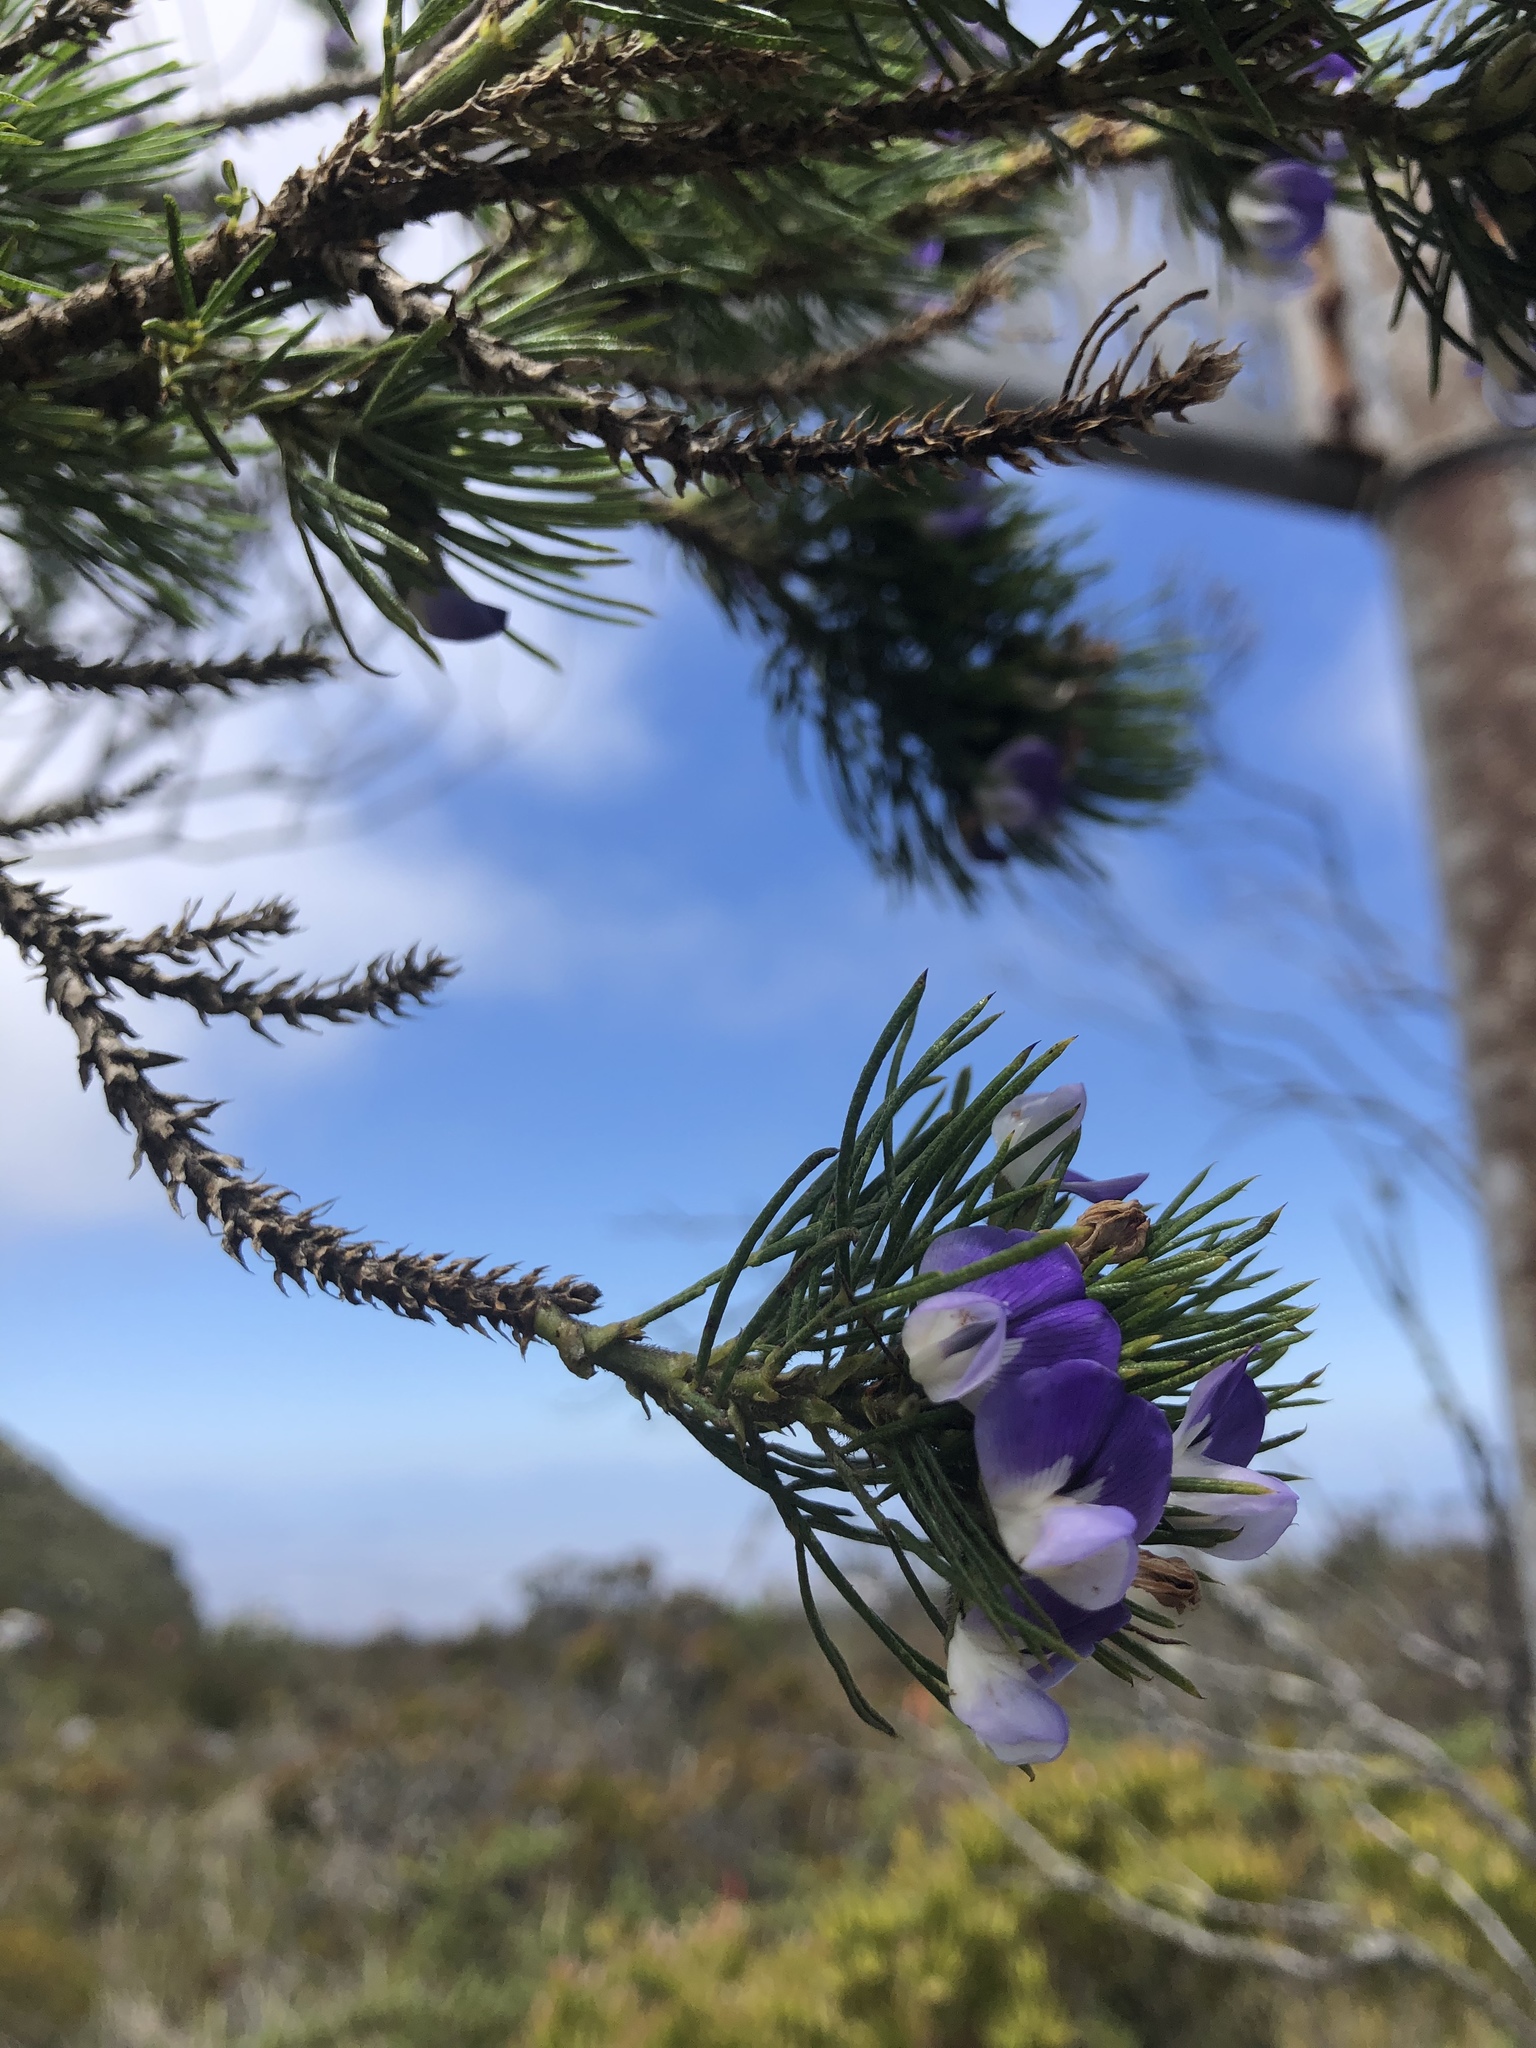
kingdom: Plantae
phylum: Tracheophyta
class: Magnoliopsida
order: Fabales
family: Fabaceae
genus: Psoralea
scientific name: Psoralea pinnata
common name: African scurfpea
